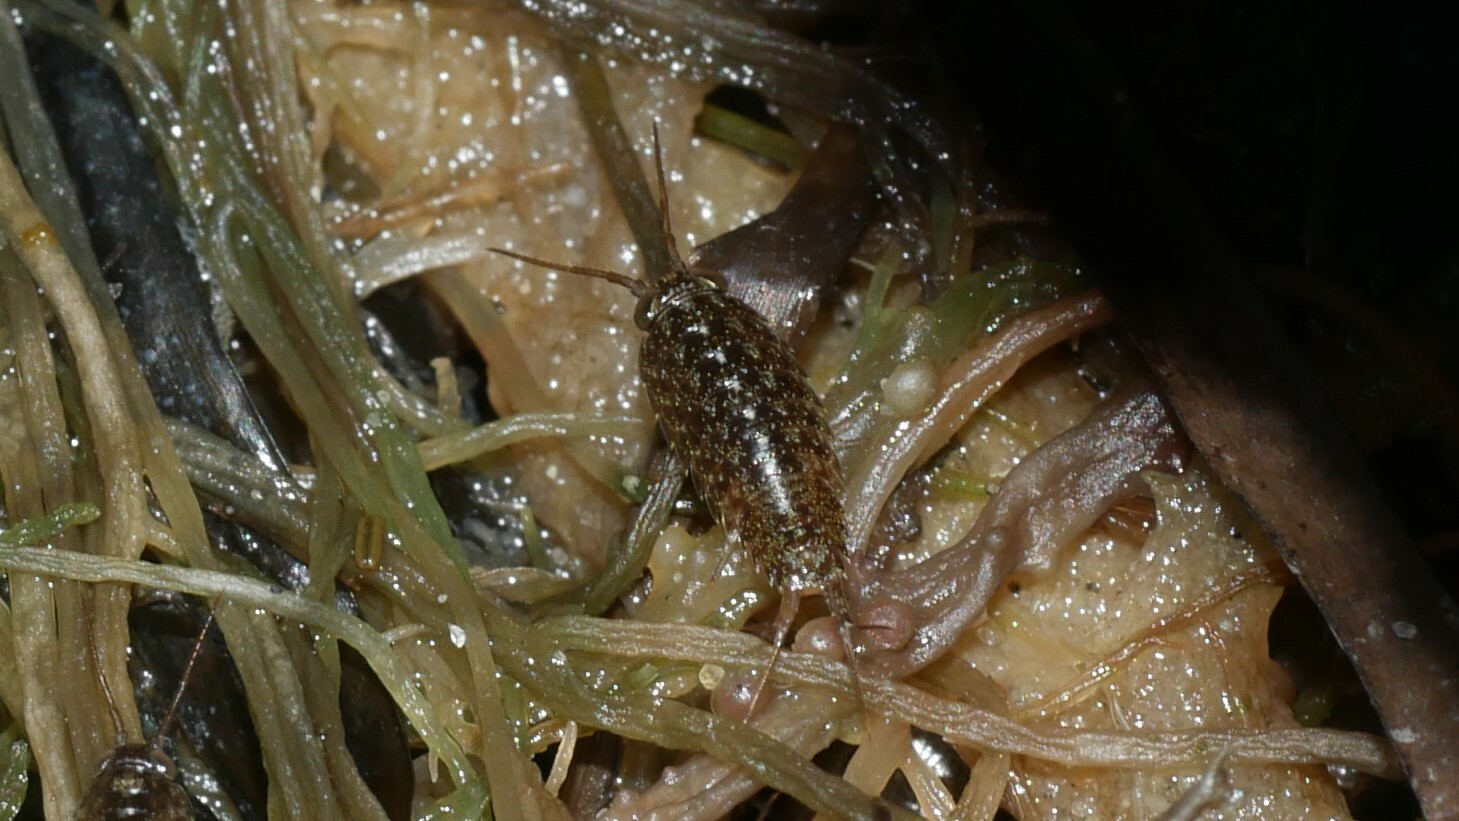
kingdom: Animalia
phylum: Arthropoda
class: Malacostraca
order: Isopoda
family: Ligiidae
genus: Ligia
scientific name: Ligia exotica
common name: Wharf roach
